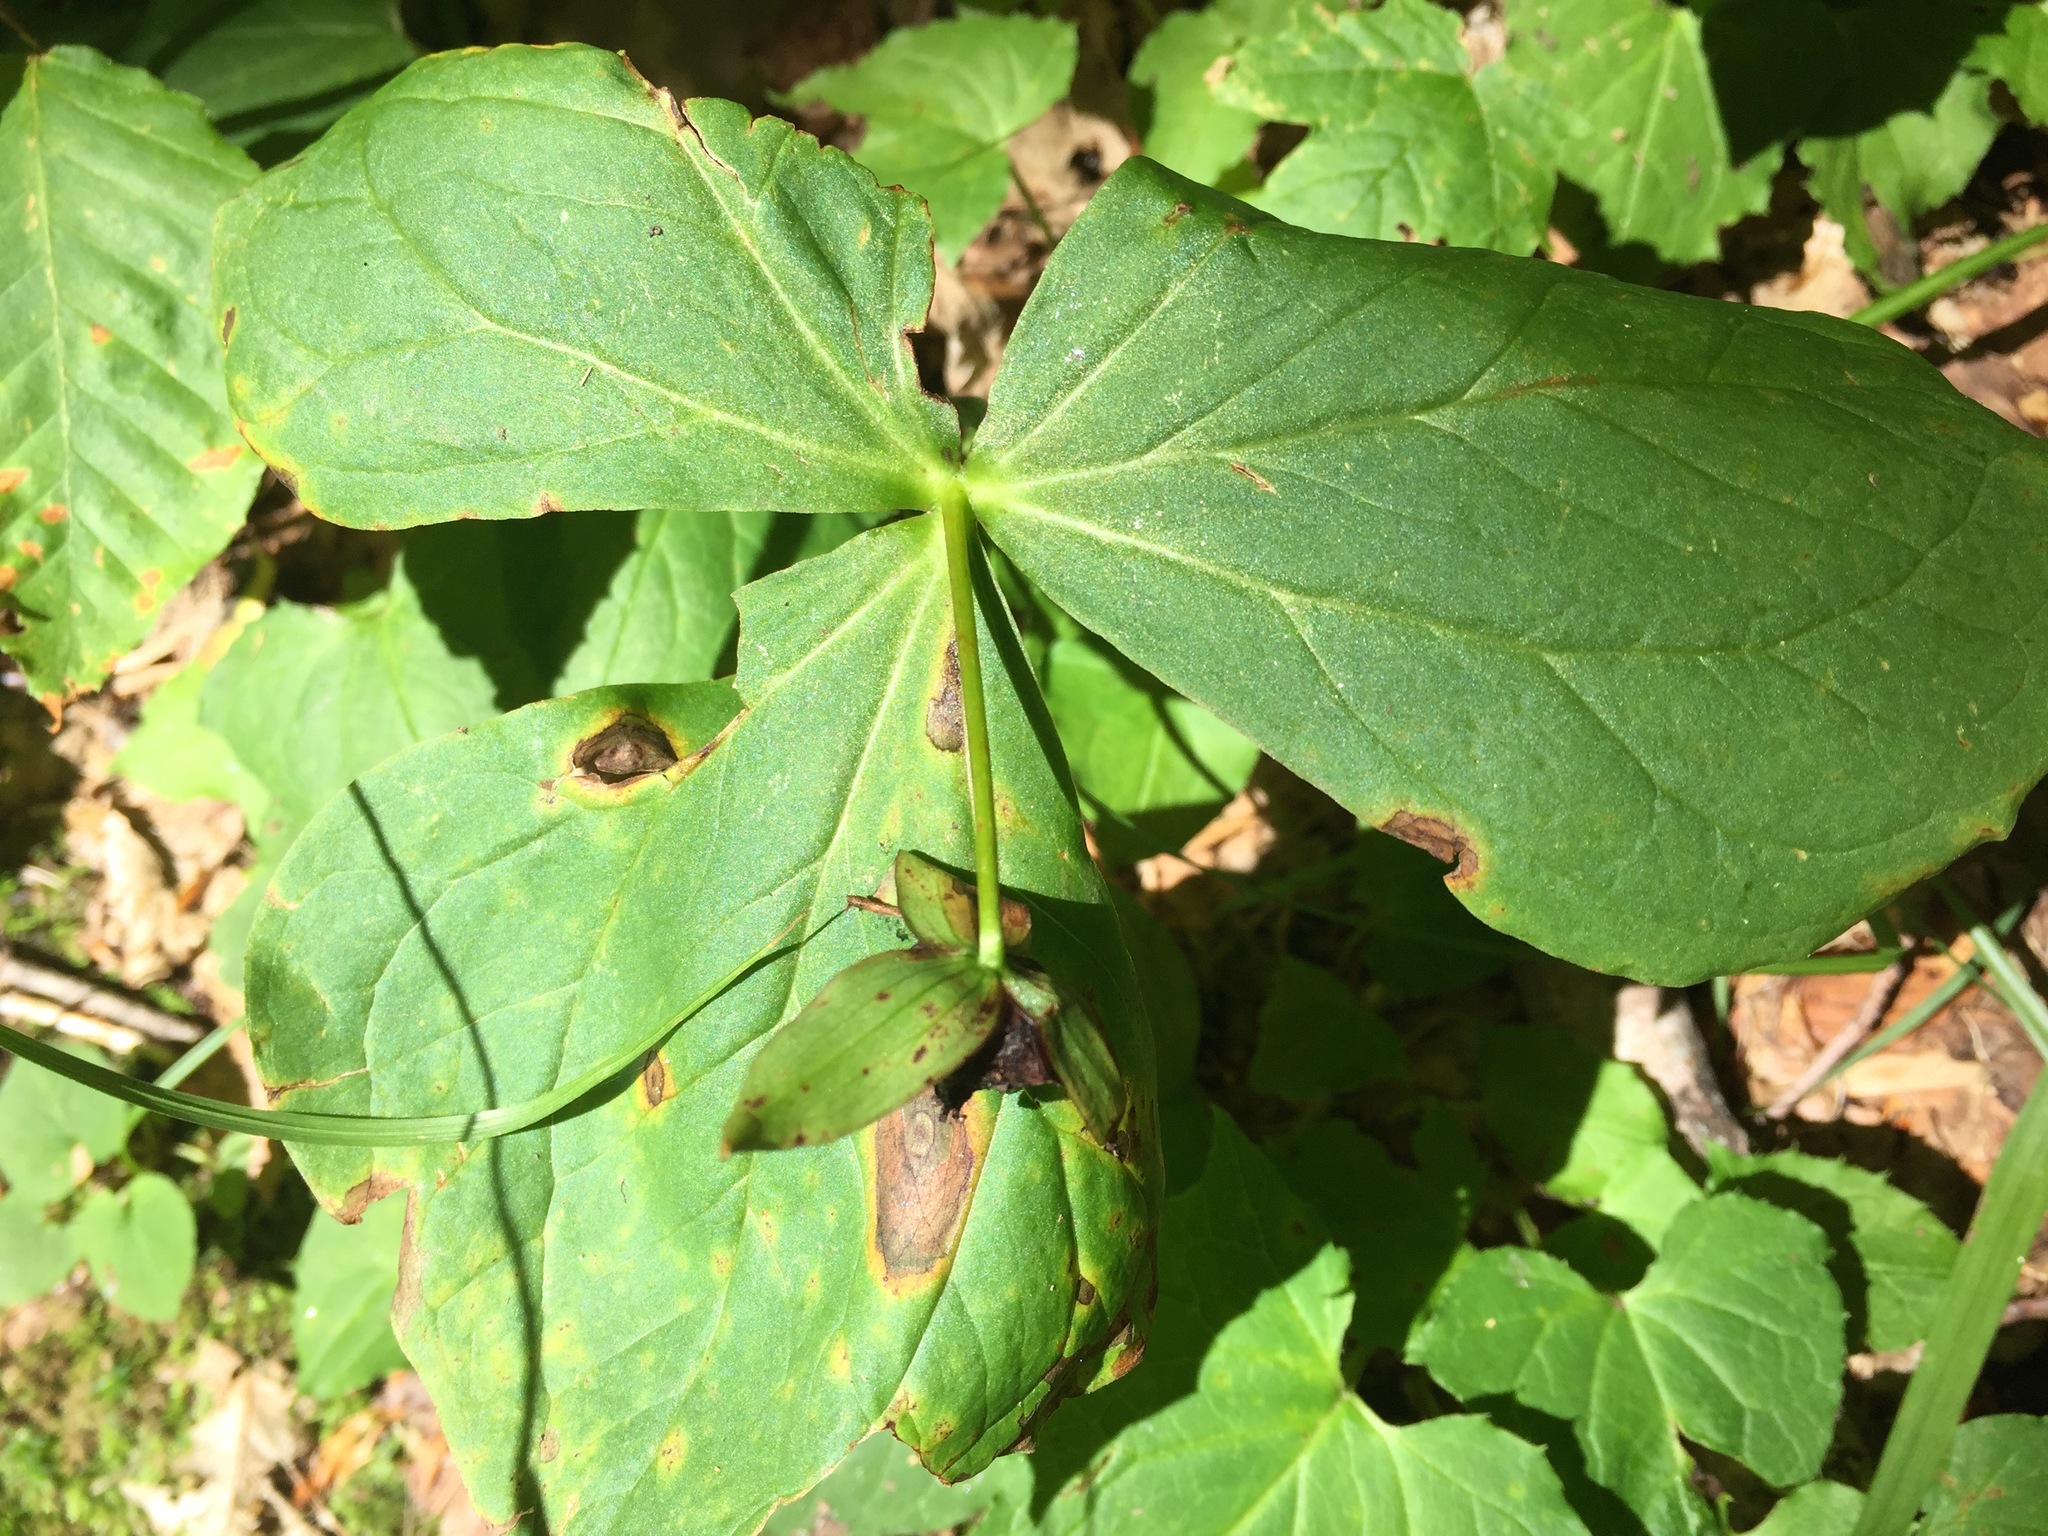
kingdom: Plantae
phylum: Tracheophyta
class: Liliopsida
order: Liliales
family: Melanthiaceae
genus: Trillium
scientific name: Trillium erectum
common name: Purple trillium
